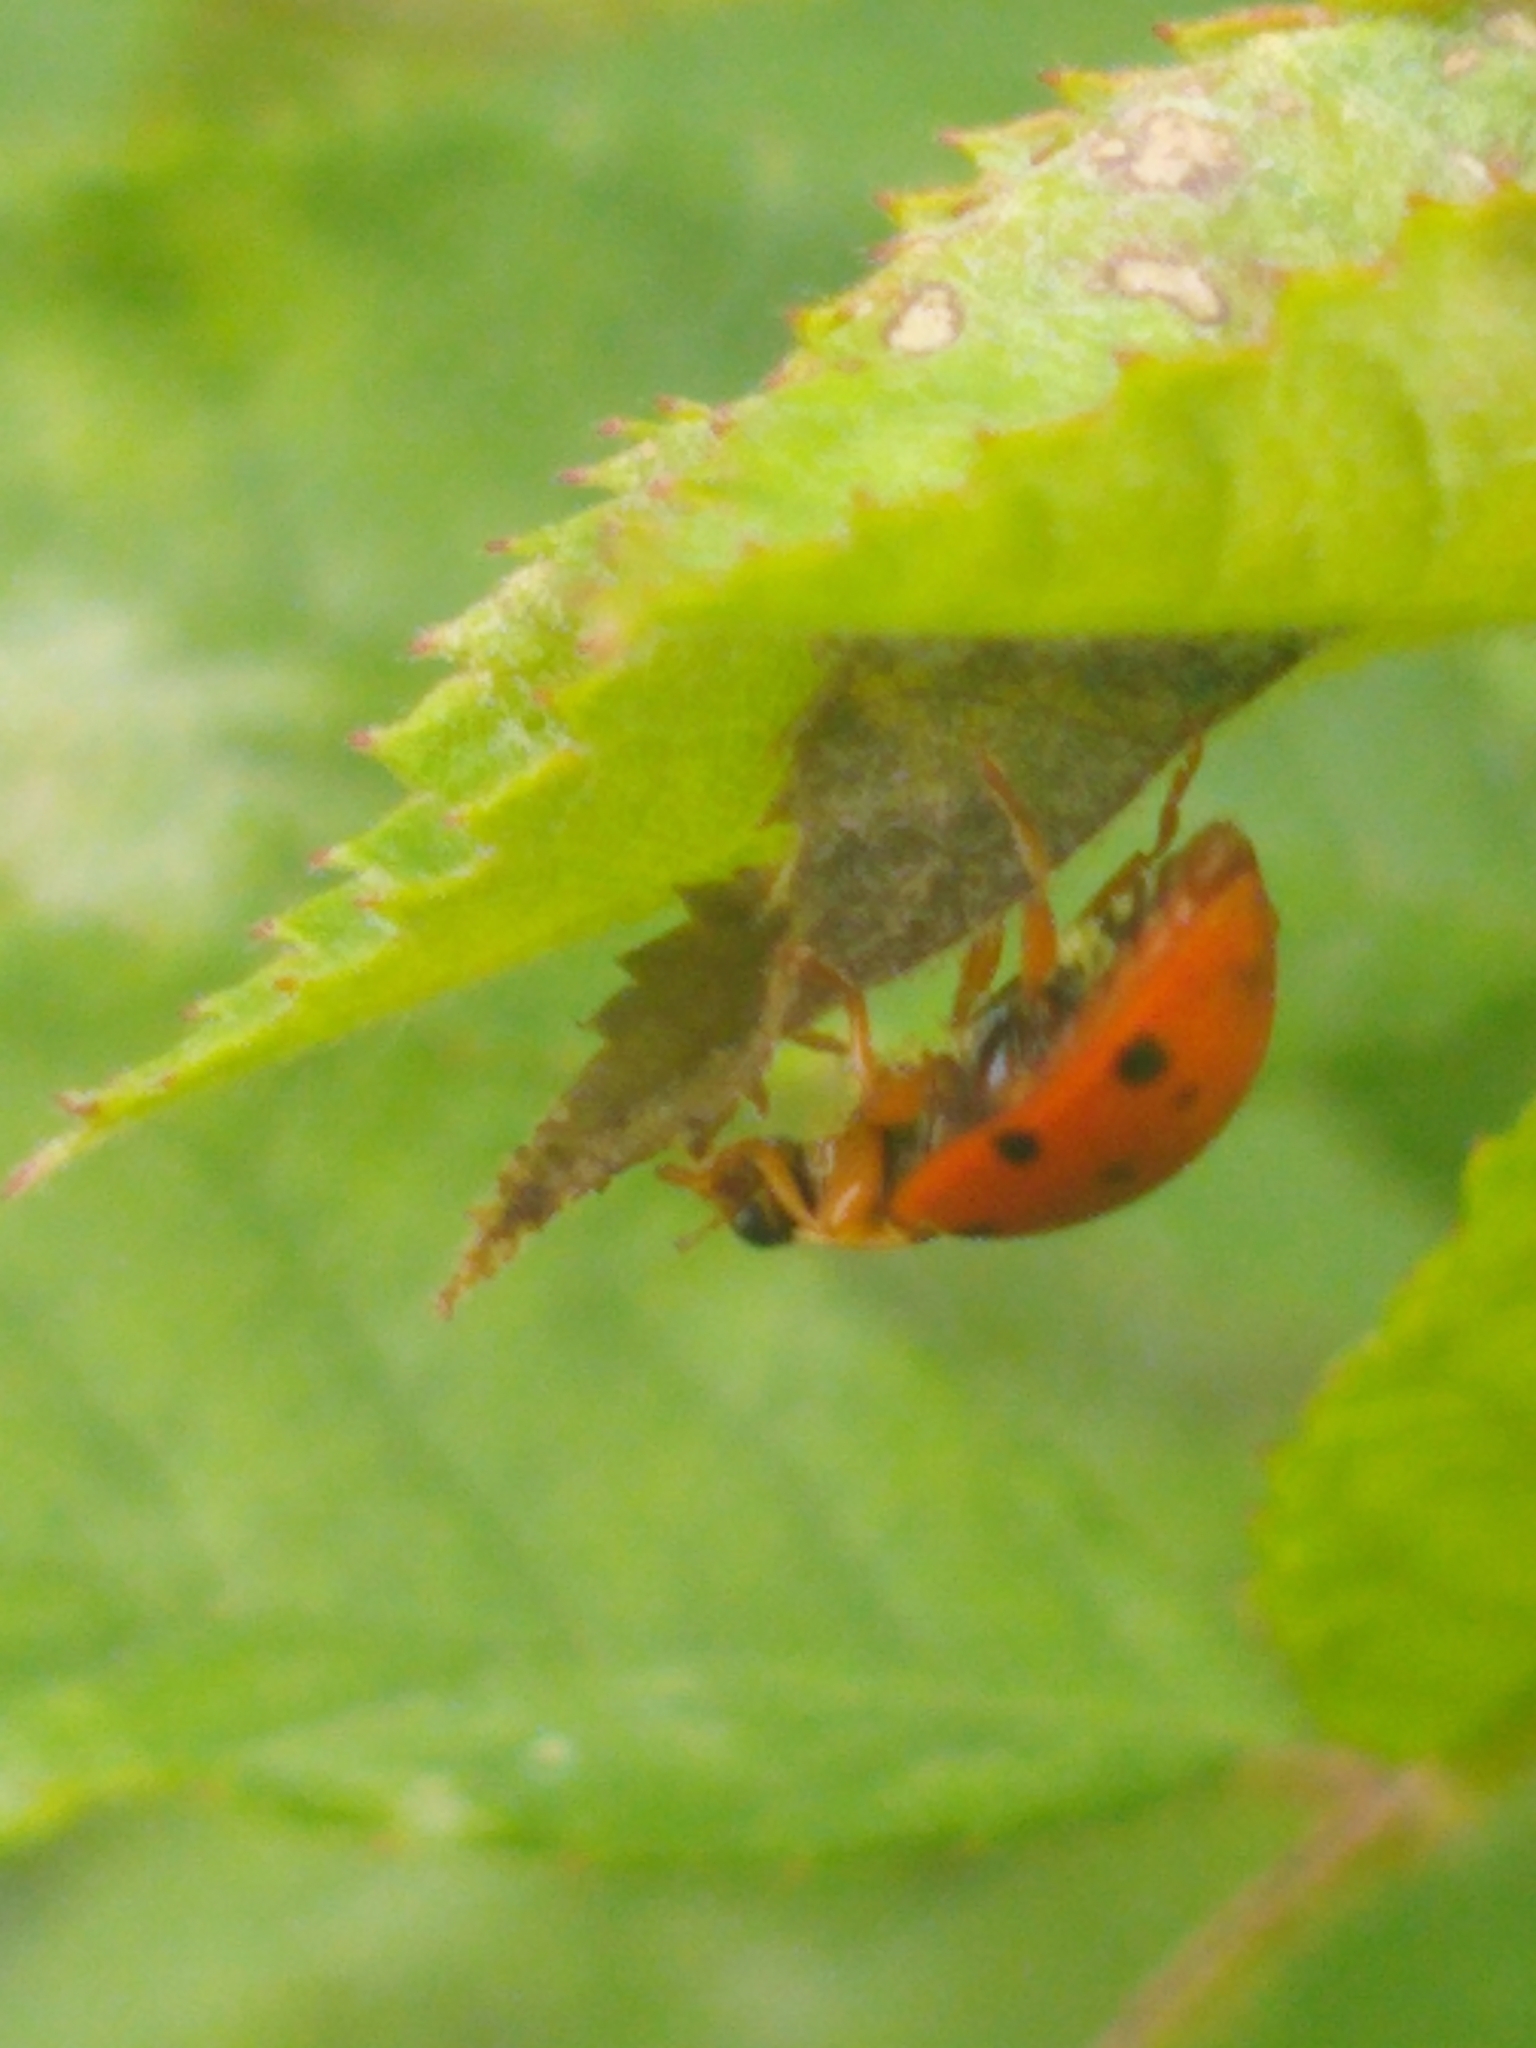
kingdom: Animalia
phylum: Arthropoda
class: Insecta
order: Coleoptera
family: Coccinellidae
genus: Harmonia
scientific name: Harmonia axyridis
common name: Harlequin ladybird
